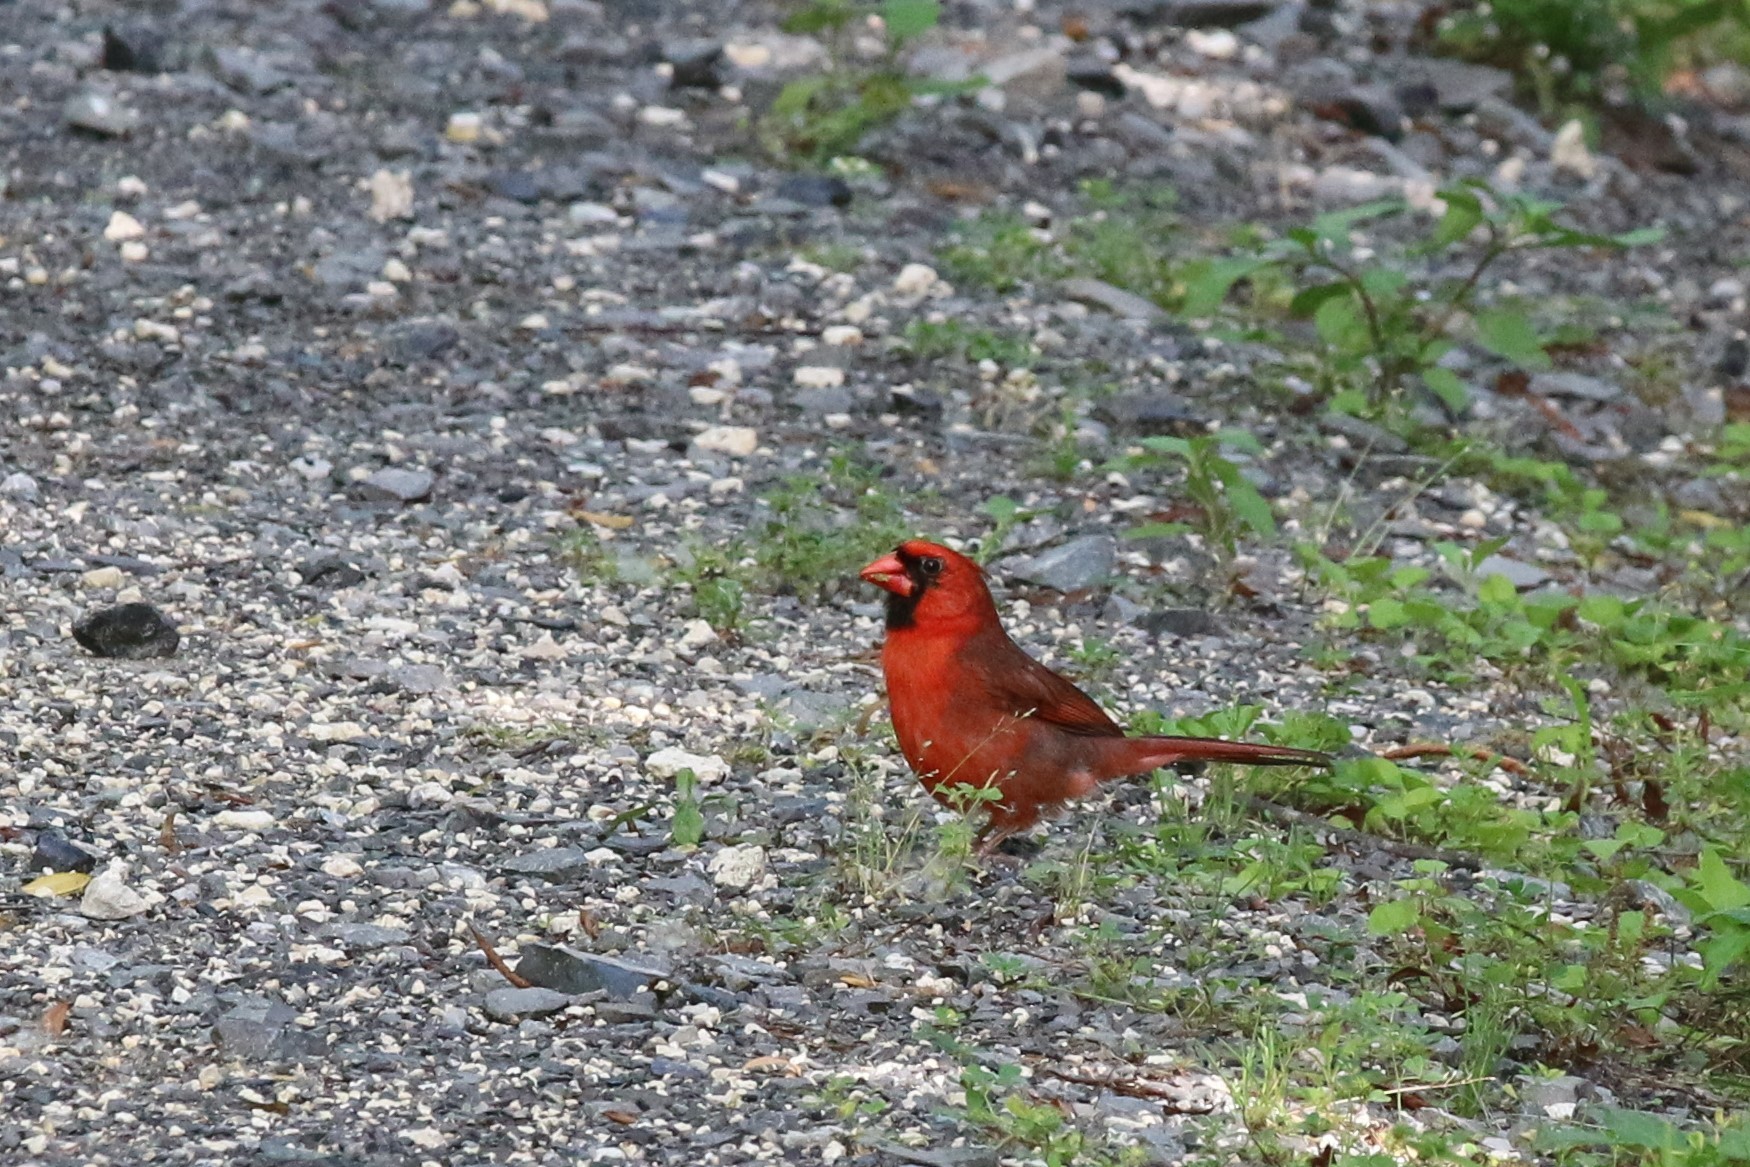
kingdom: Animalia
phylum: Chordata
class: Aves
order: Passeriformes
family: Cardinalidae
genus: Cardinalis
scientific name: Cardinalis cardinalis
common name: Northern cardinal
